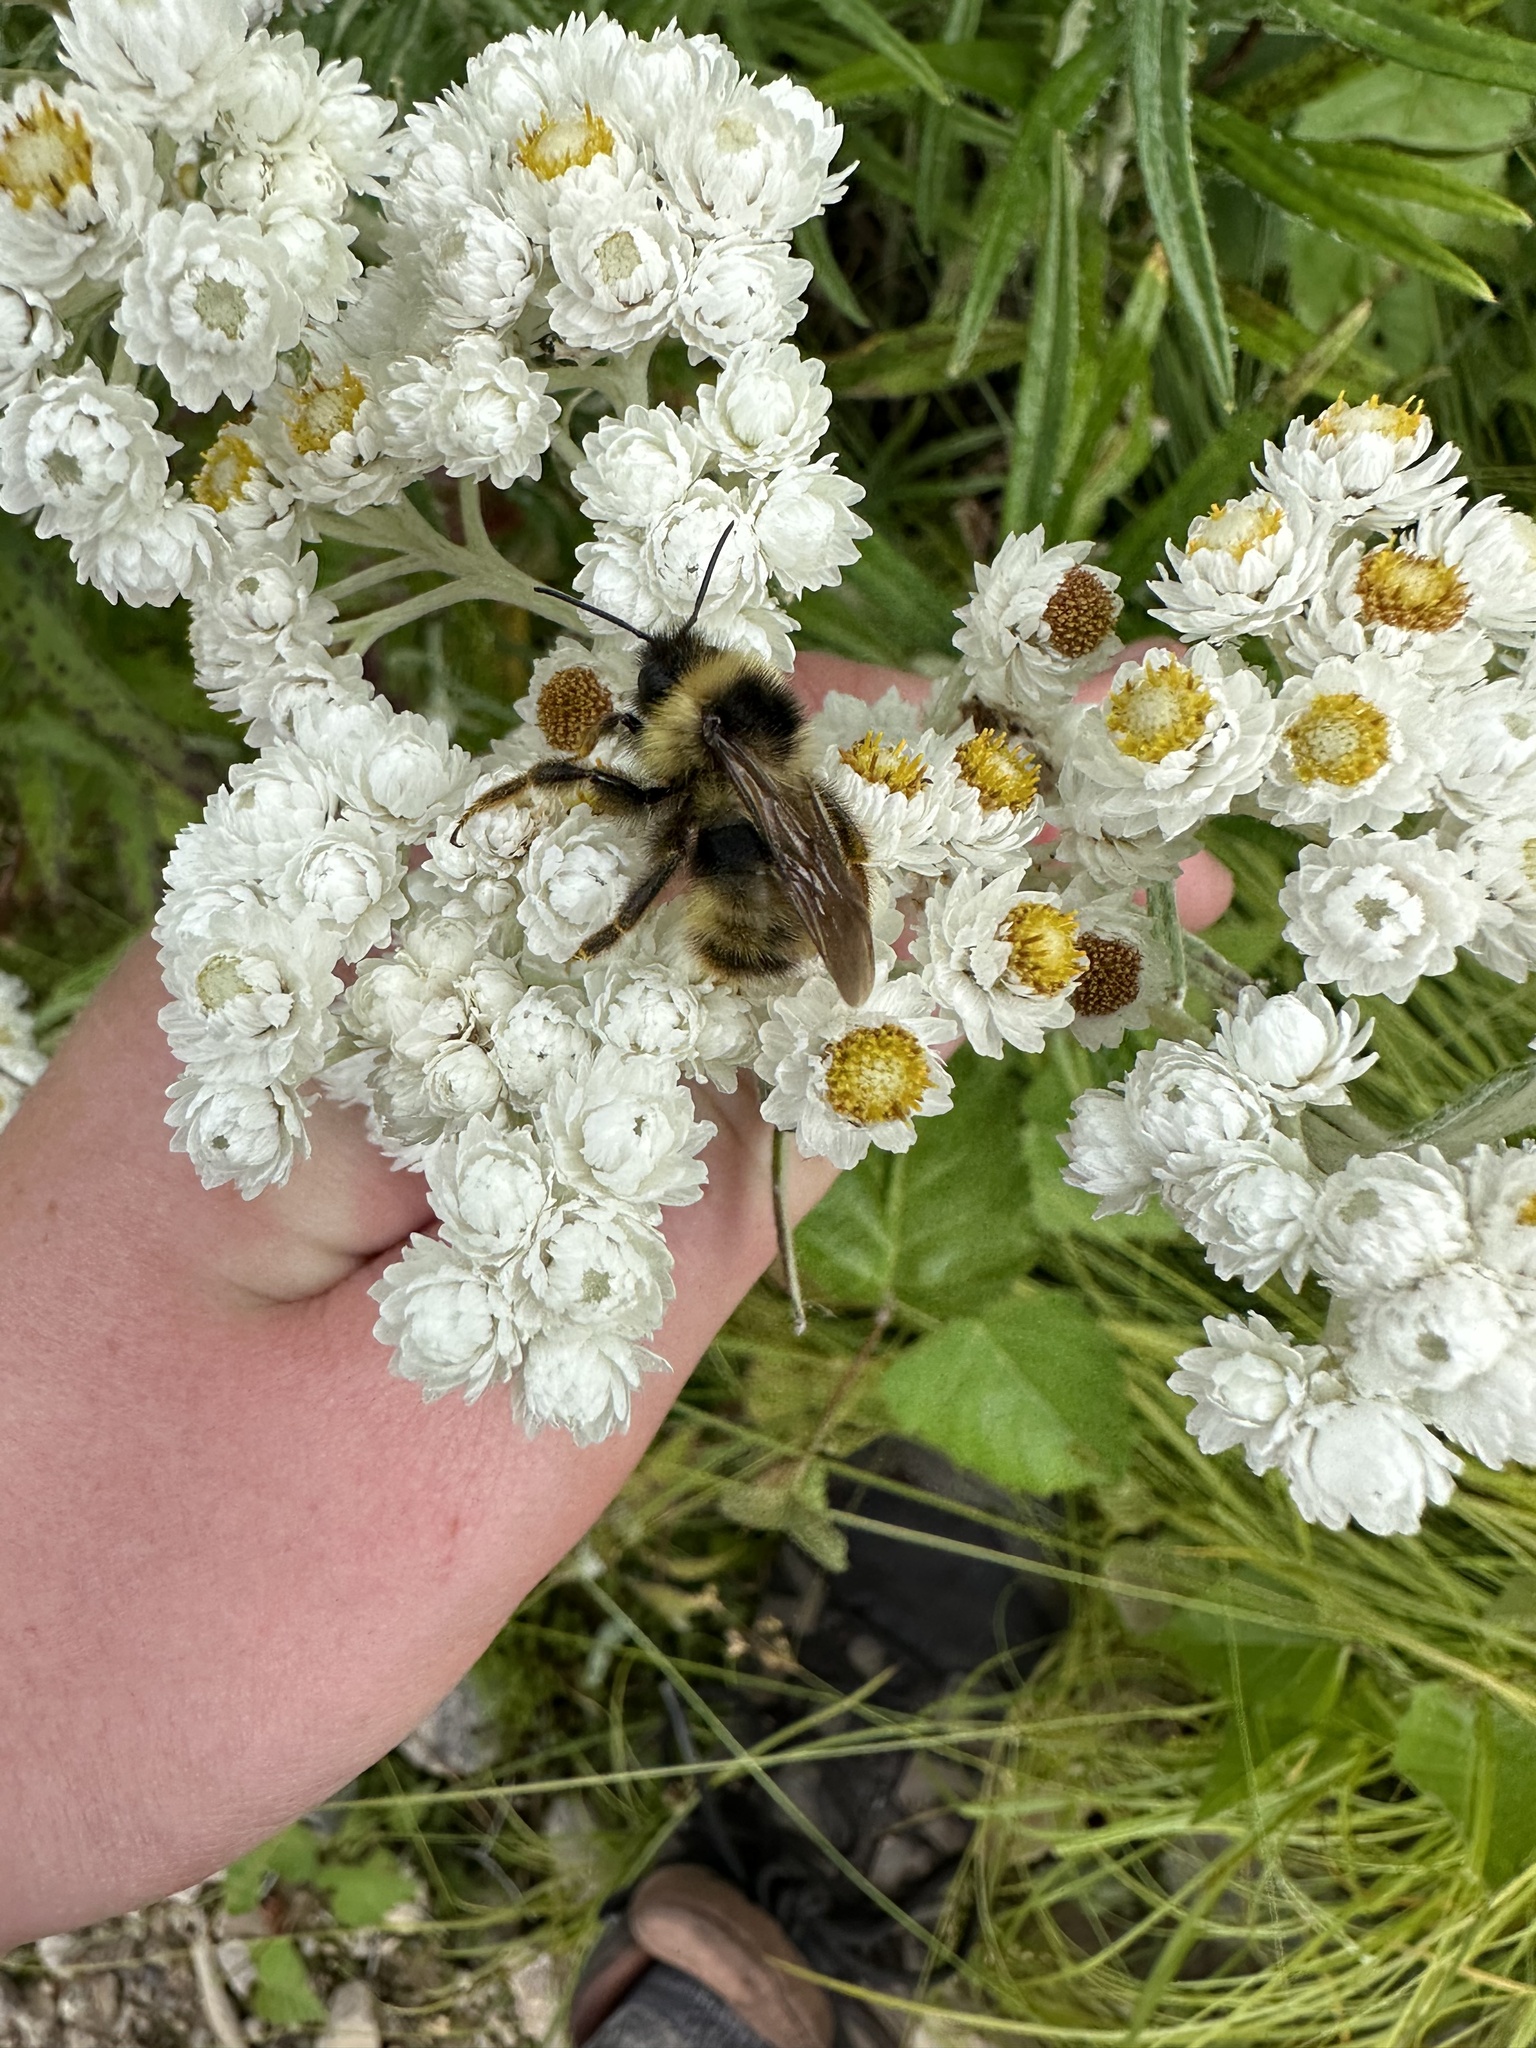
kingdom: Animalia
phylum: Arthropoda
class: Insecta
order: Hymenoptera
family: Apidae
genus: Bombus
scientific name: Bombus flavidus
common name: Fernald cuckoo bumble bee
